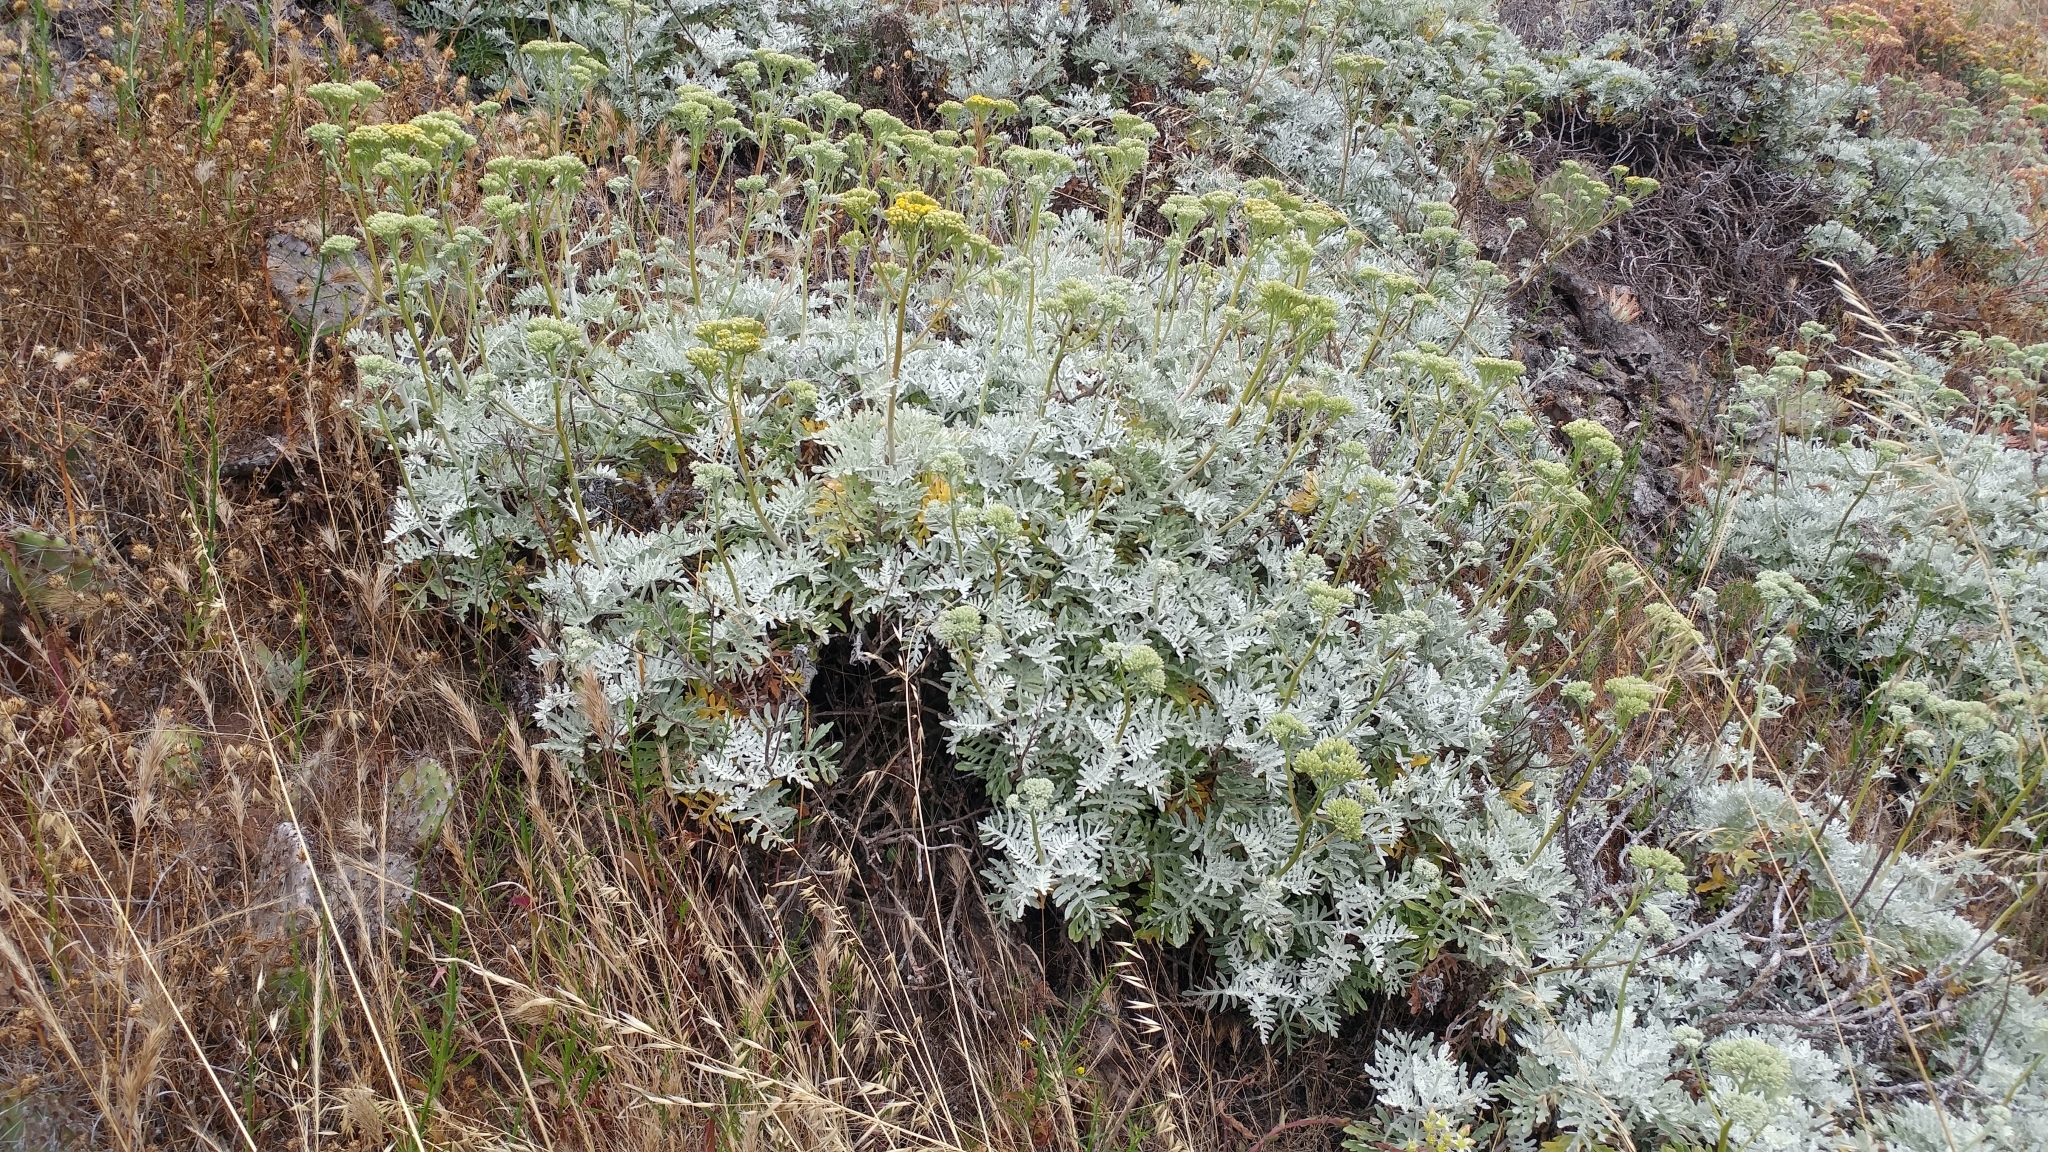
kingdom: Plantae
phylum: Tracheophyta
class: Magnoliopsida
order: Asterales
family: Asteraceae
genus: Constancea
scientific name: Constancea nevinii
